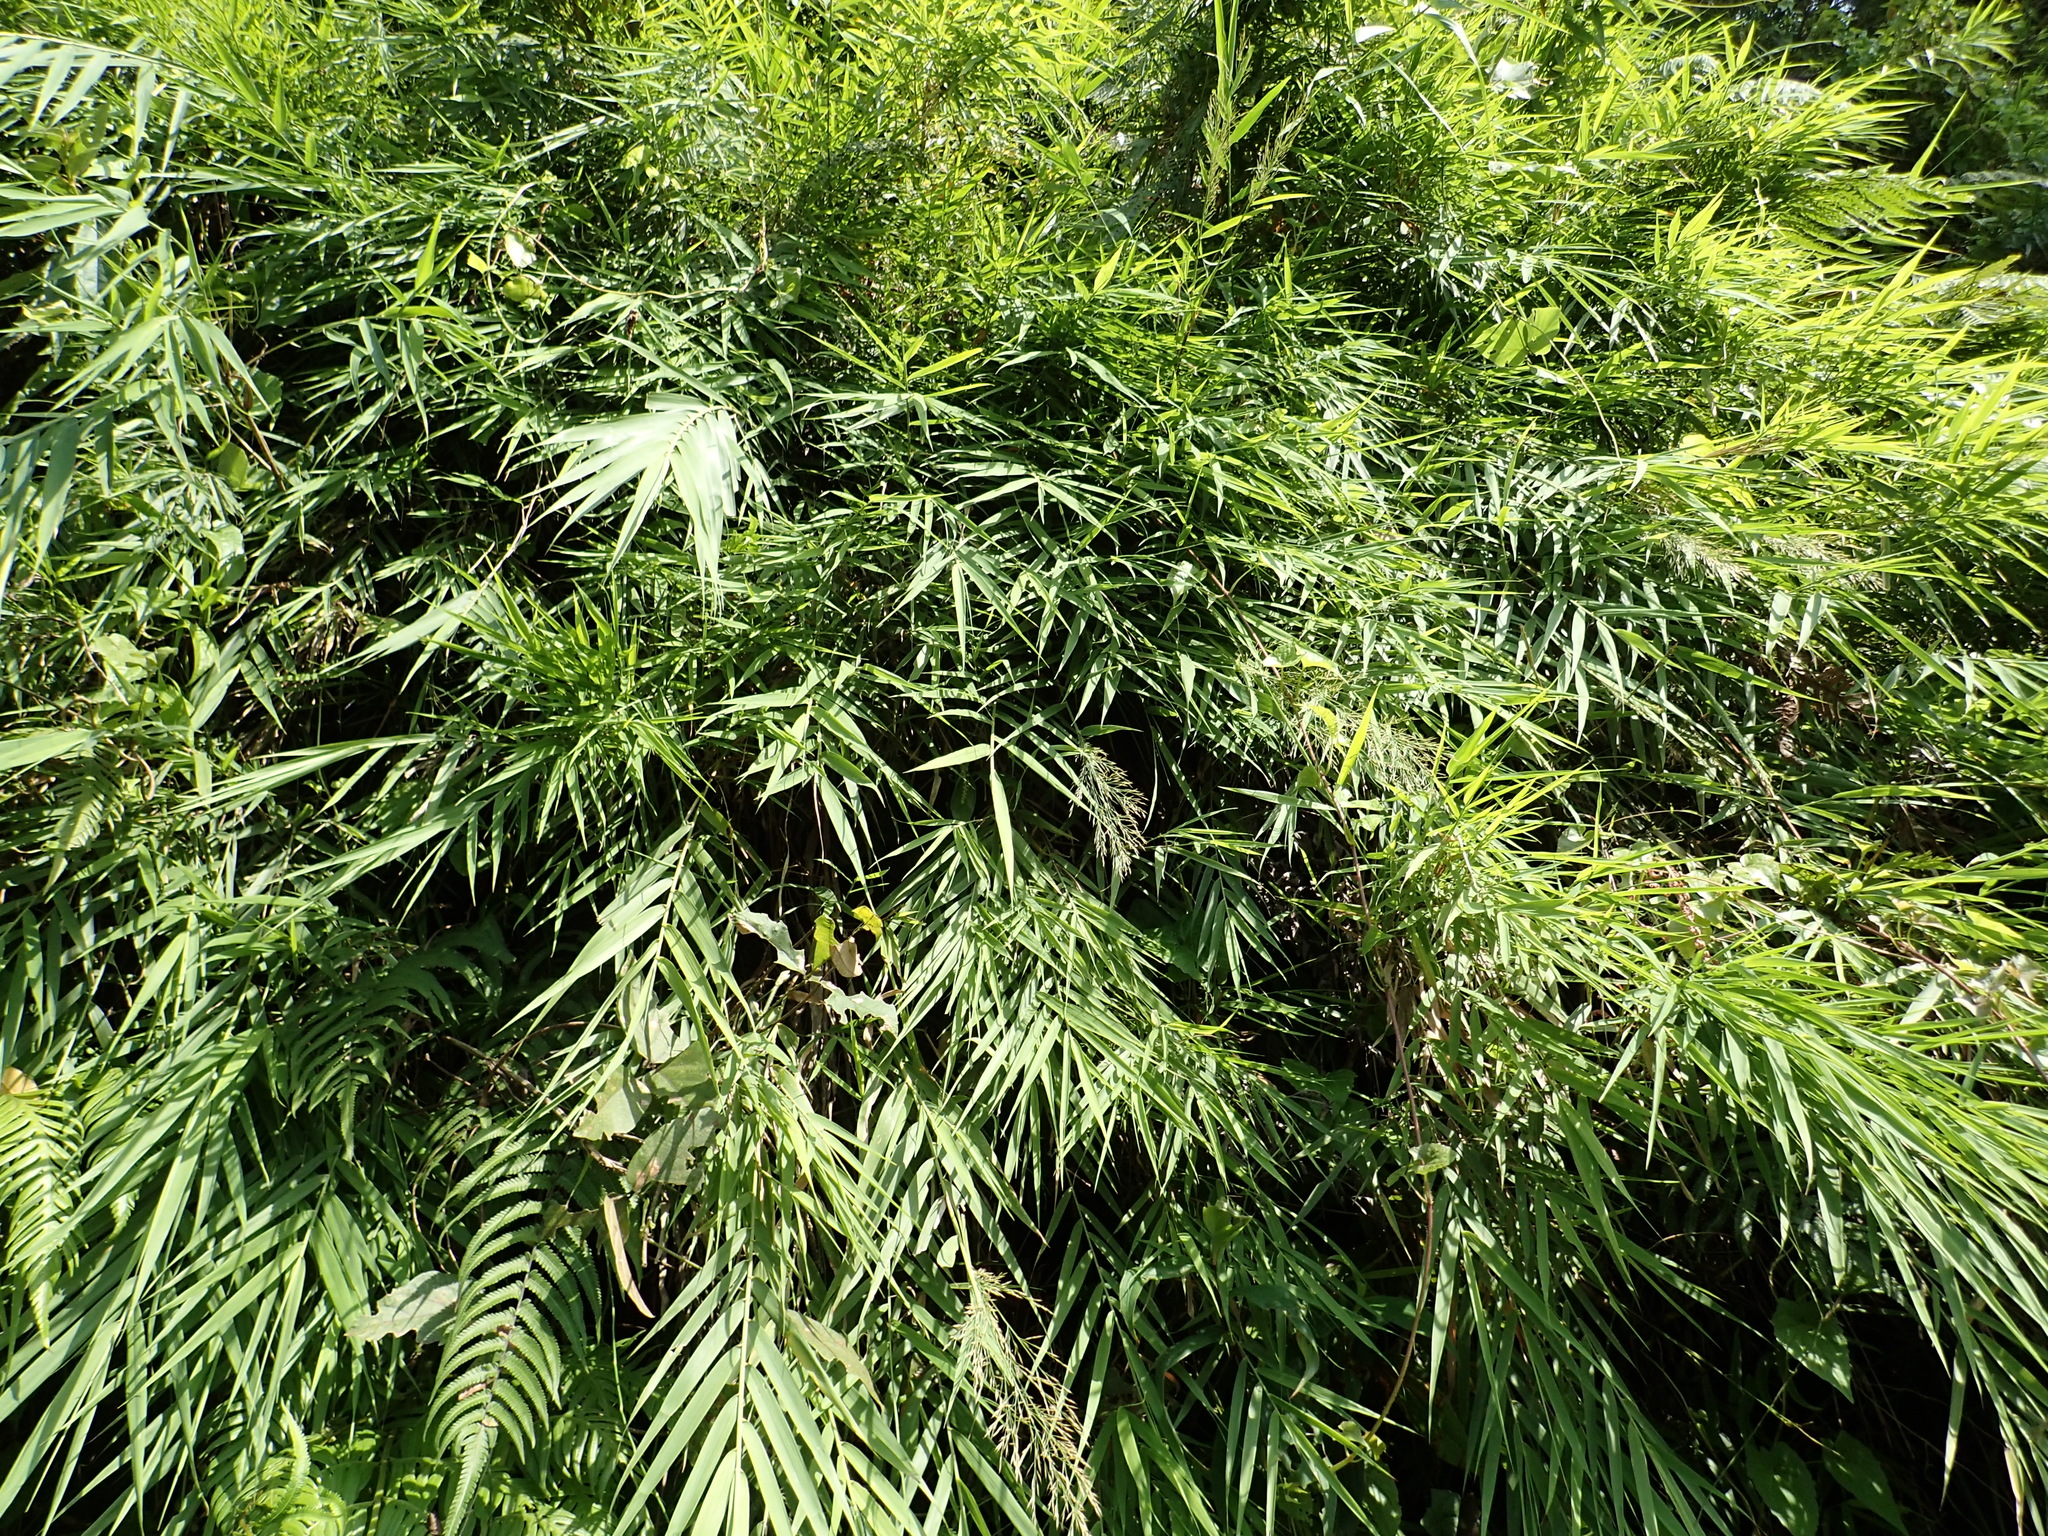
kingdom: Plantae
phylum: Tracheophyta
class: Liliopsida
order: Poales
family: Poaceae
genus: Arundo
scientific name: Arundo formosana
